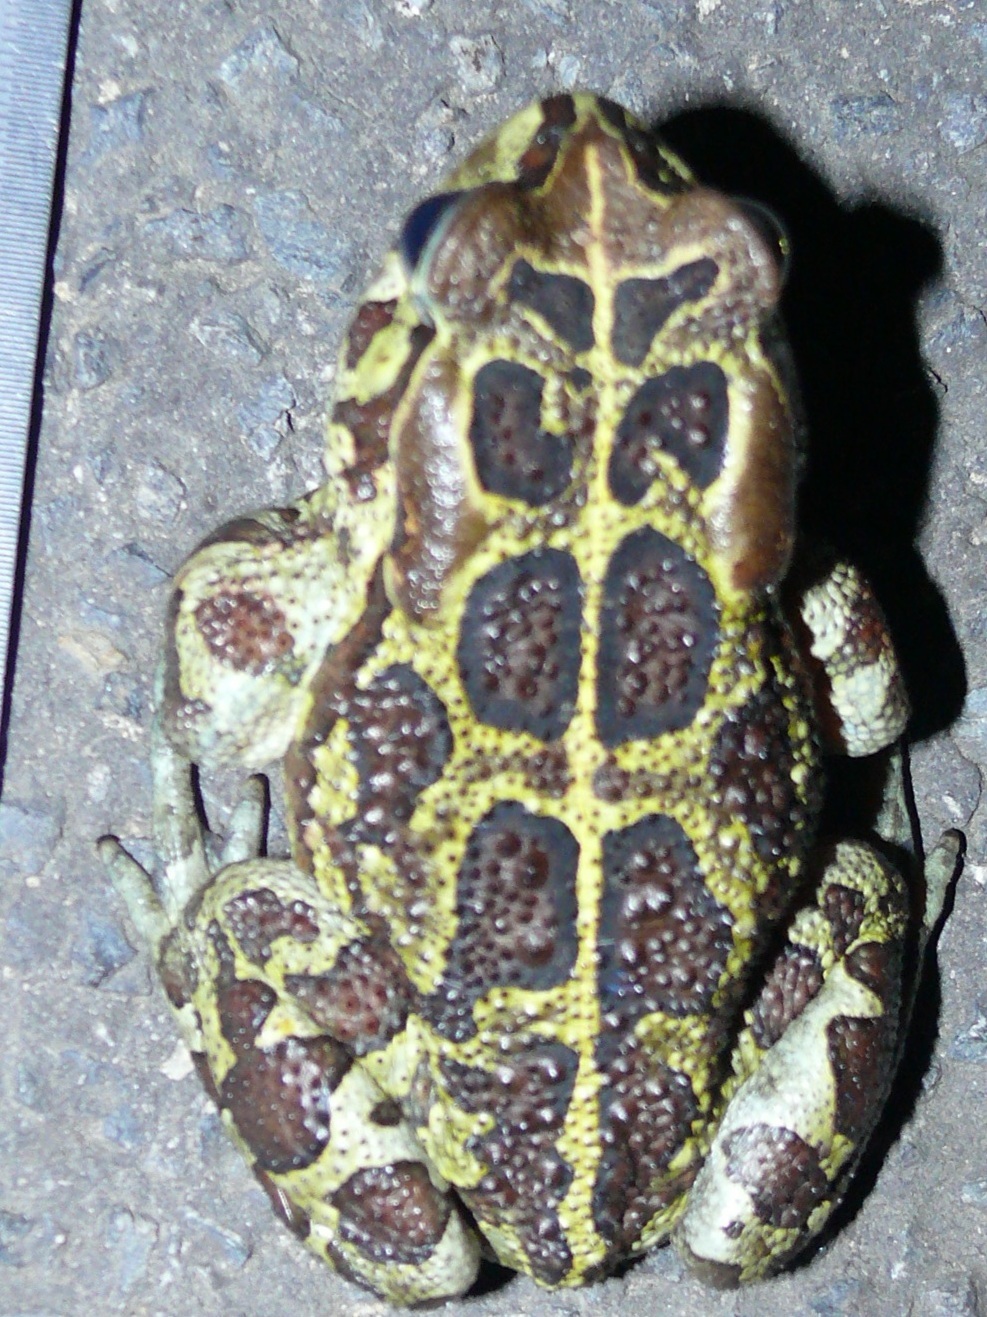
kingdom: Animalia
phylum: Chordata
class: Amphibia
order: Anura
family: Bufonidae
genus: Sclerophrys
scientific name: Sclerophrys pantherina
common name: Panther toad
